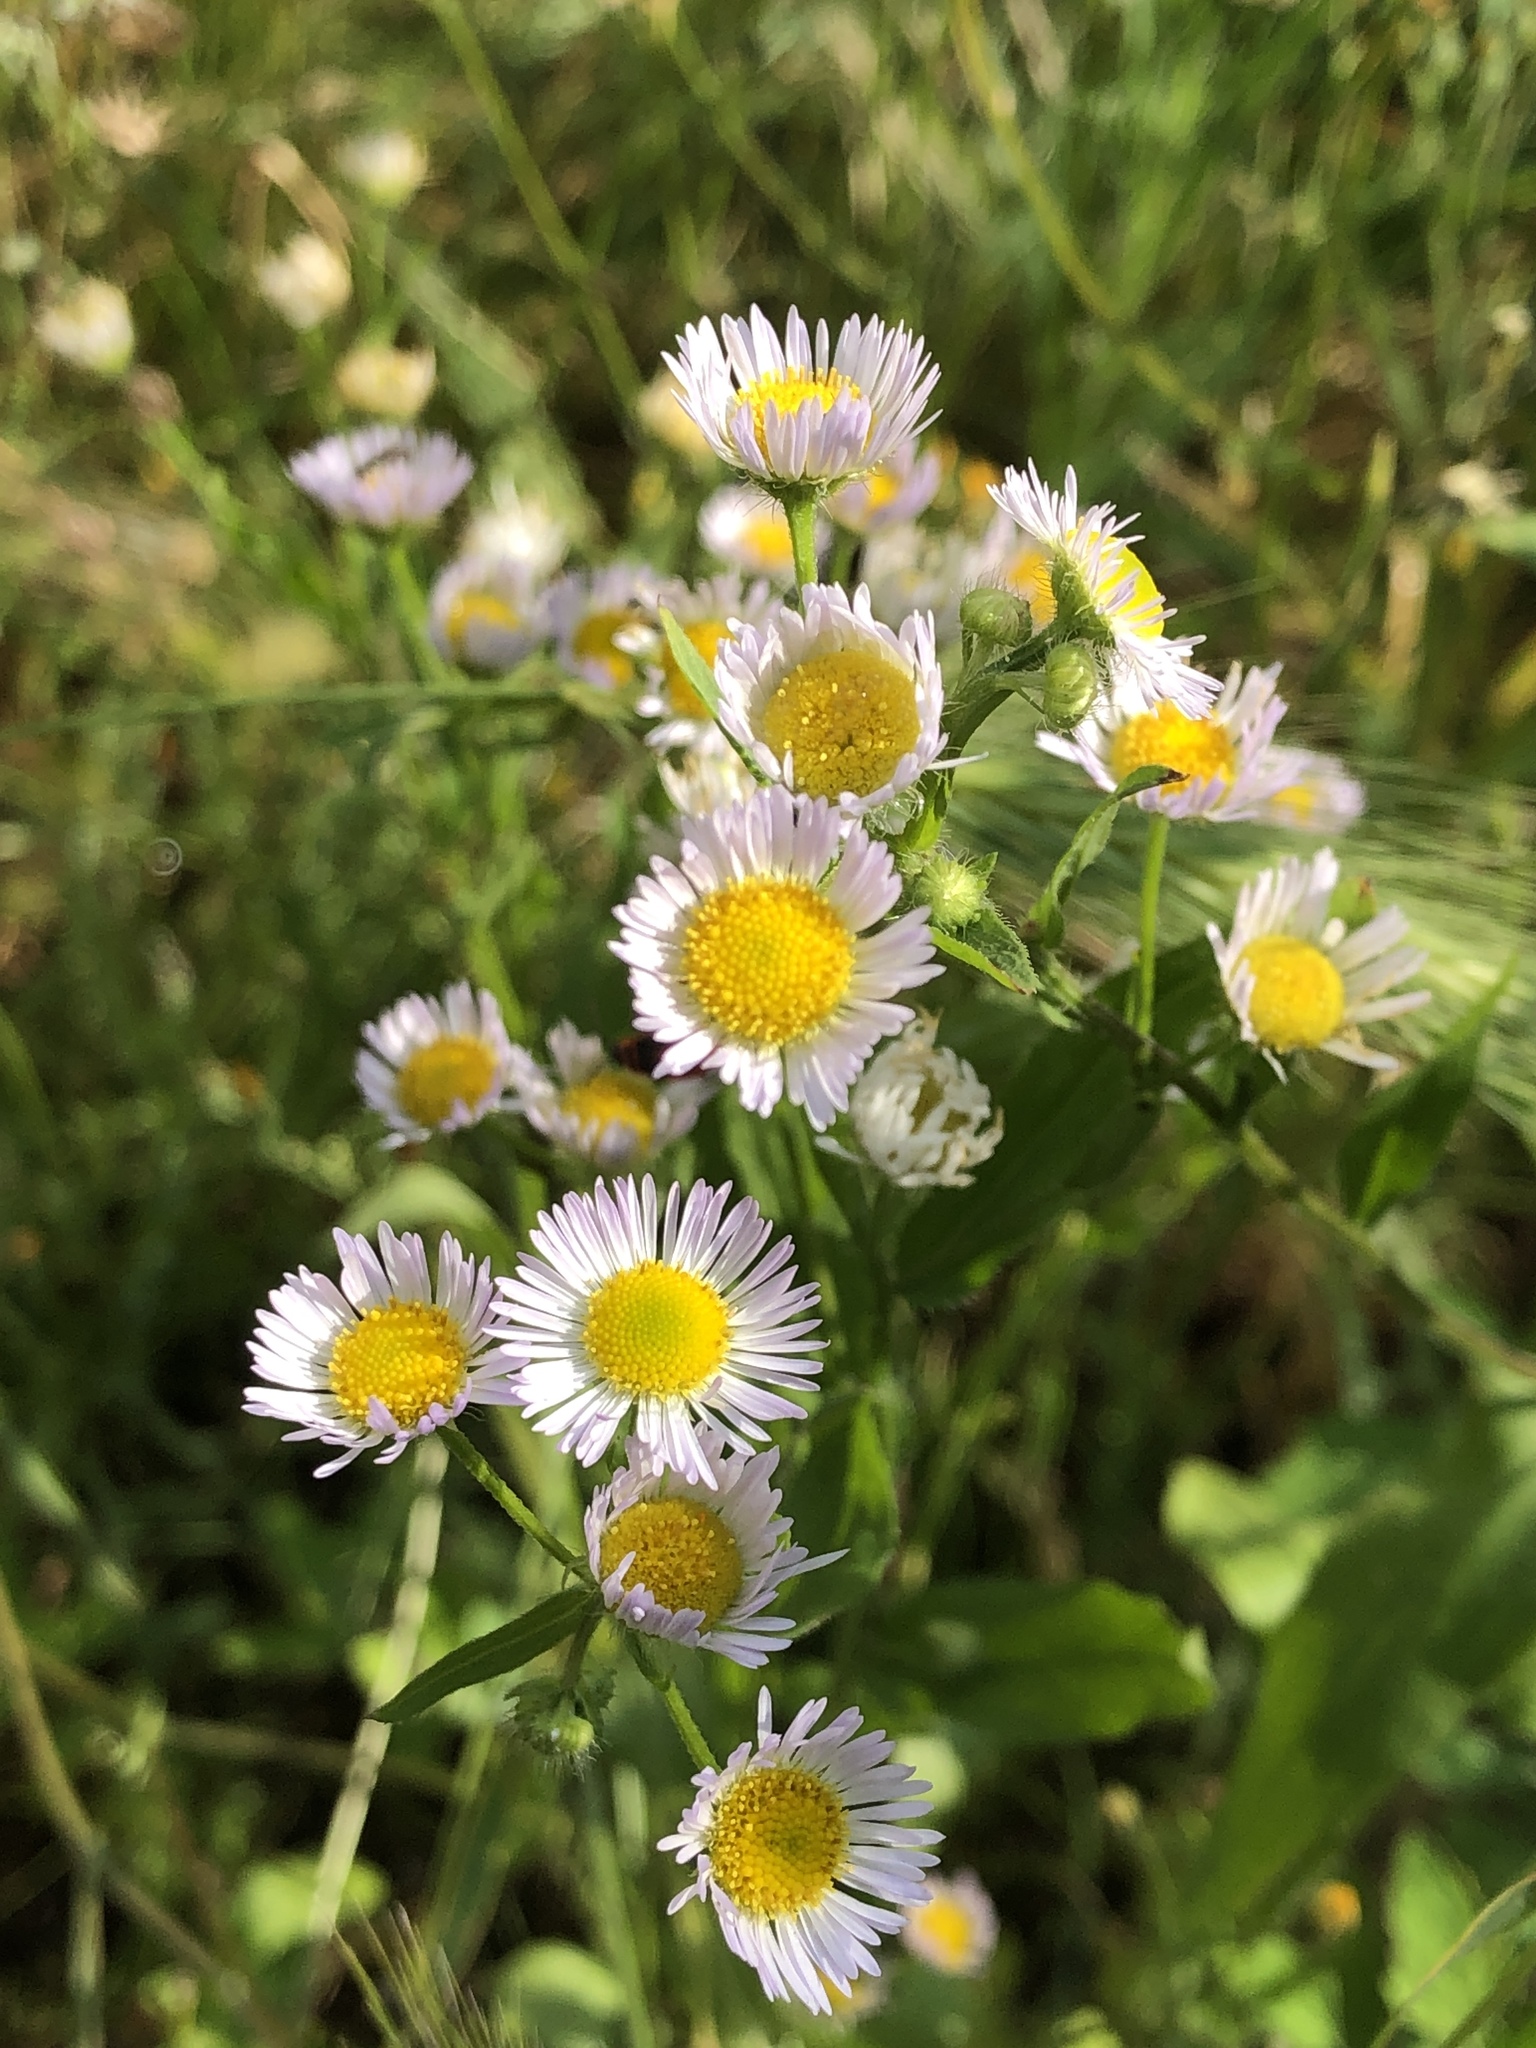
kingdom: Plantae
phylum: Tracheophyta
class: Magnoliopsida
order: Asterales
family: Asteraceae
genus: Erigeron
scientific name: Erigeron annuus
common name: Tall fleabane
